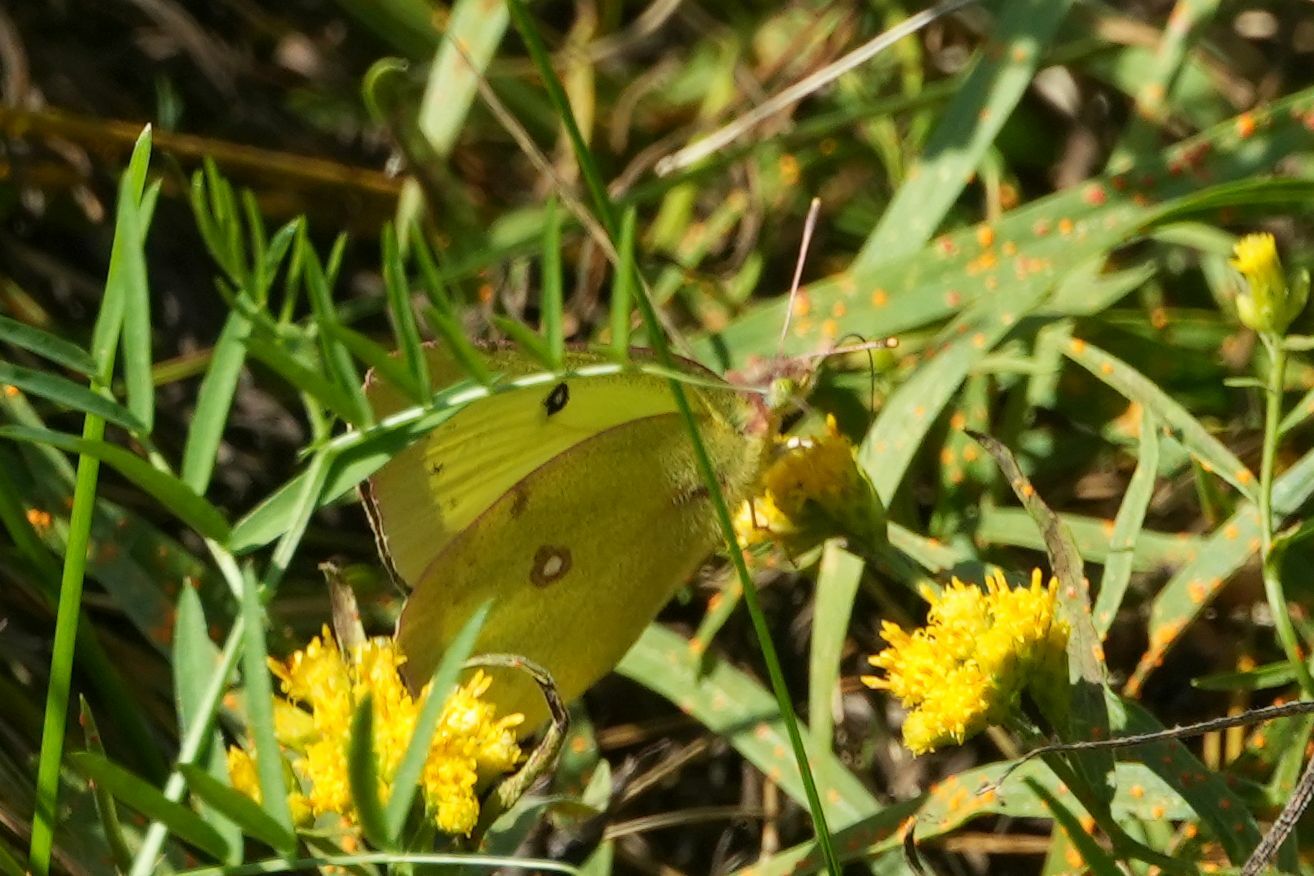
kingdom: Animalia
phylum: Arthropoda
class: Insecta
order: Lepidoptera
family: Pieridae
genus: Colias
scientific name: Colias philodice
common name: Clouded sulphur
